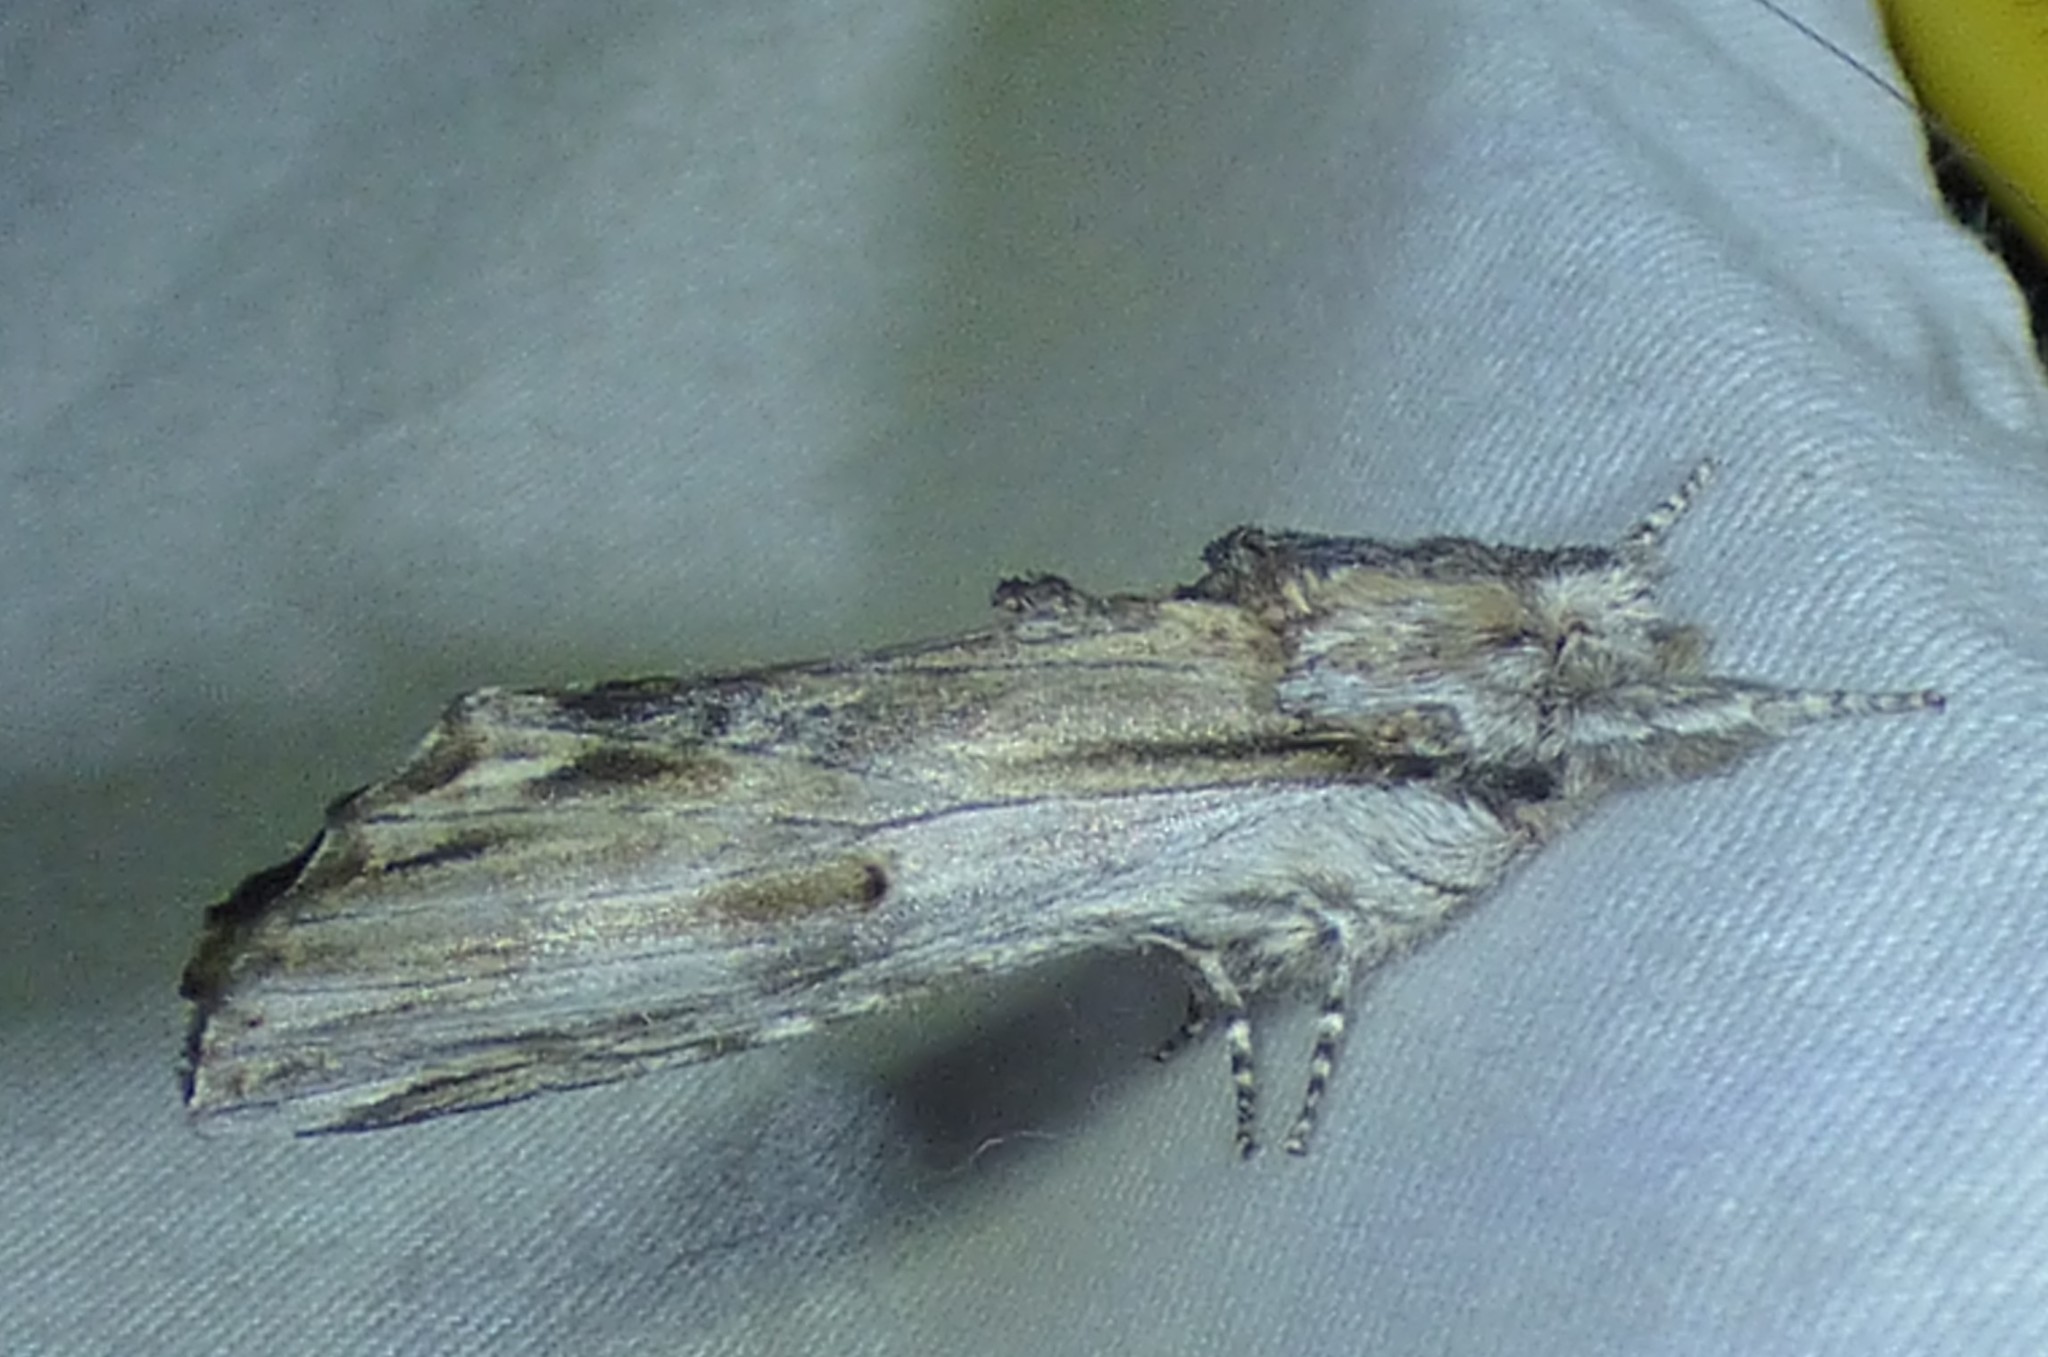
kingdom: Animalia
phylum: Arthropoda
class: Insecta
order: Lepidoptera
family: Notodontidae
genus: Oligocentria
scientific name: Oligocentria Ianassa lignicolor
